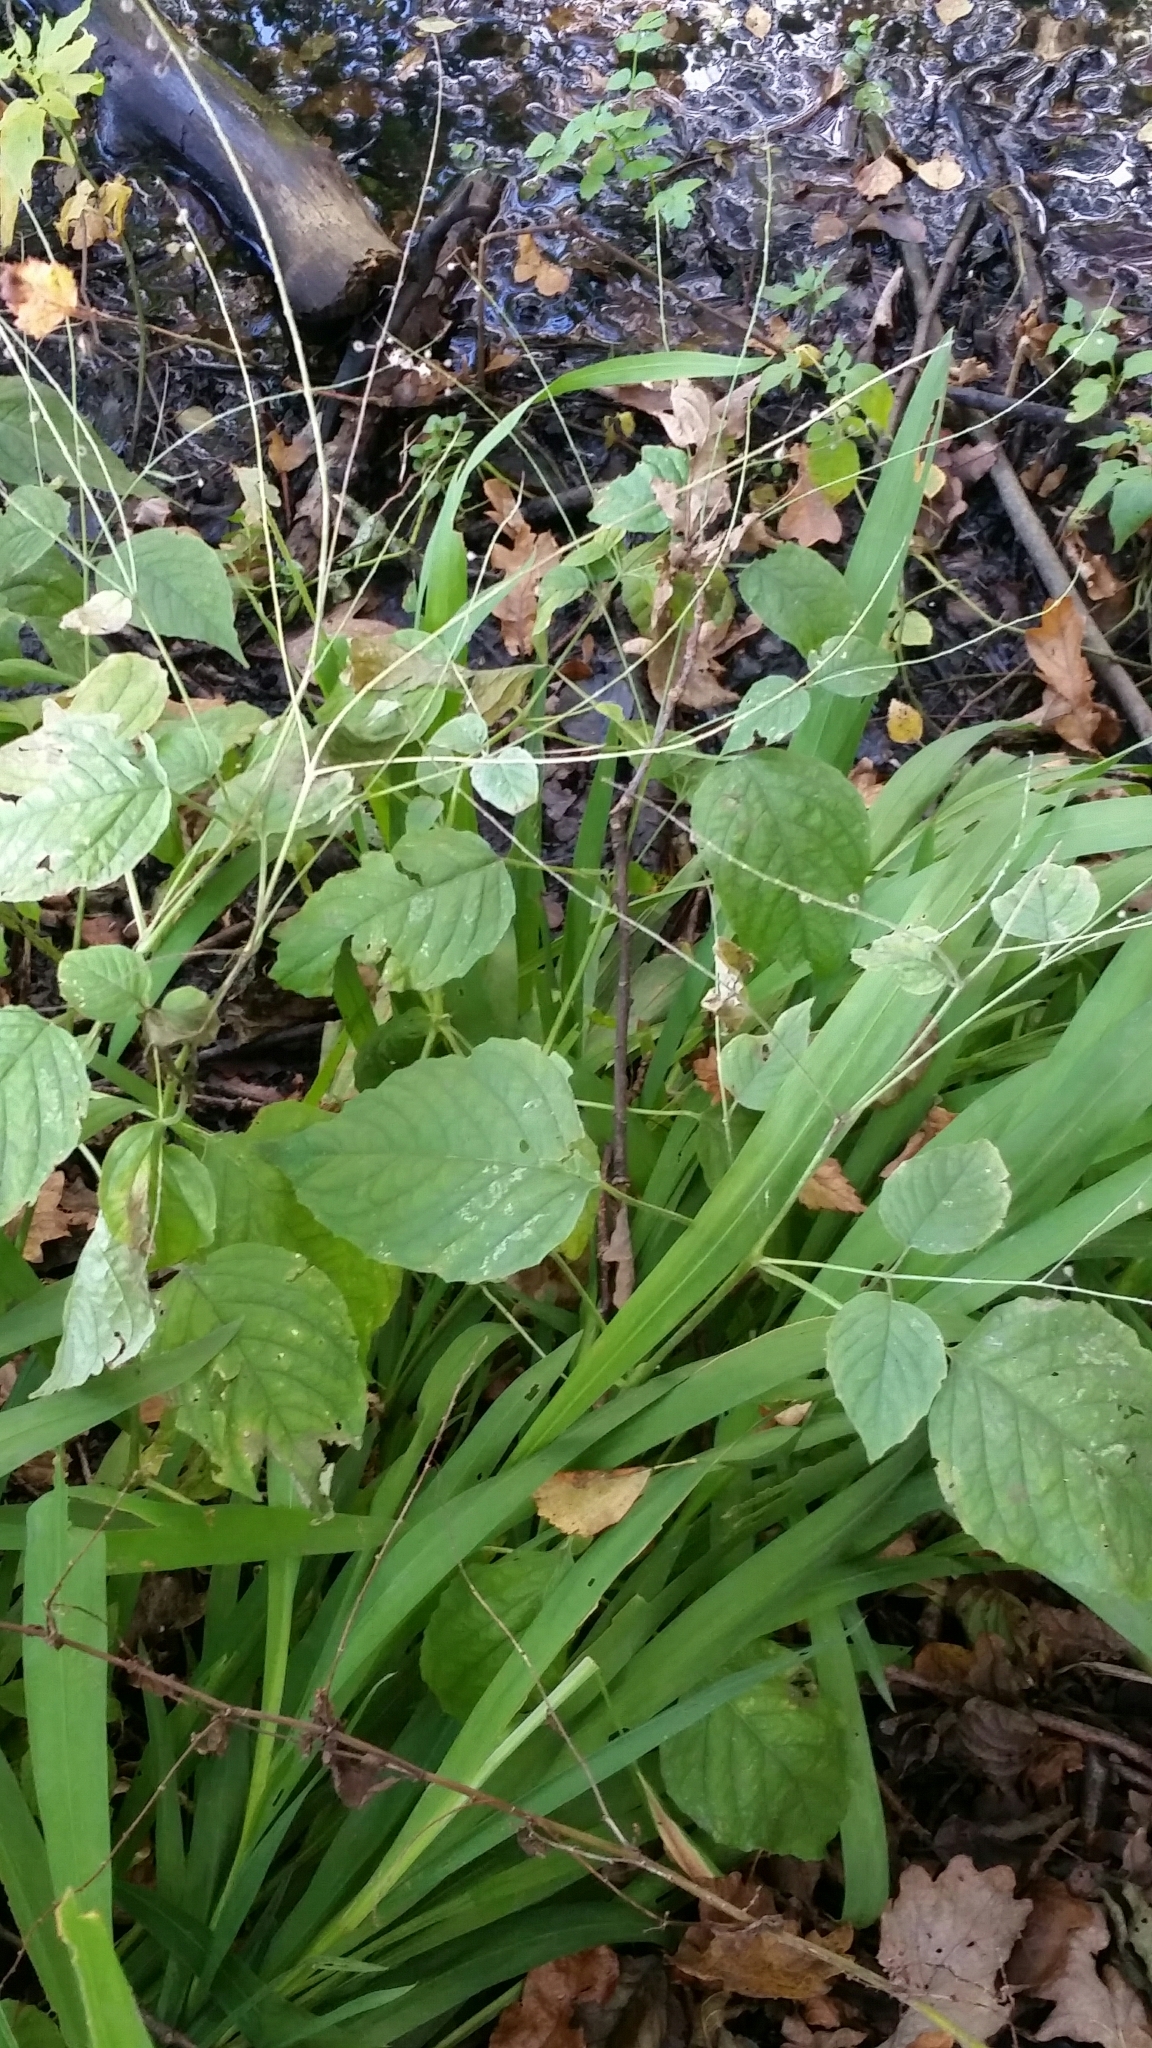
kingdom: Plantae
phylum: Tracheophyta
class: Magnoliopsida
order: Myrtales
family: Onagraceae
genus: Circaea
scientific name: Circaea lutetiana
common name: Enchanter's-nightshade
